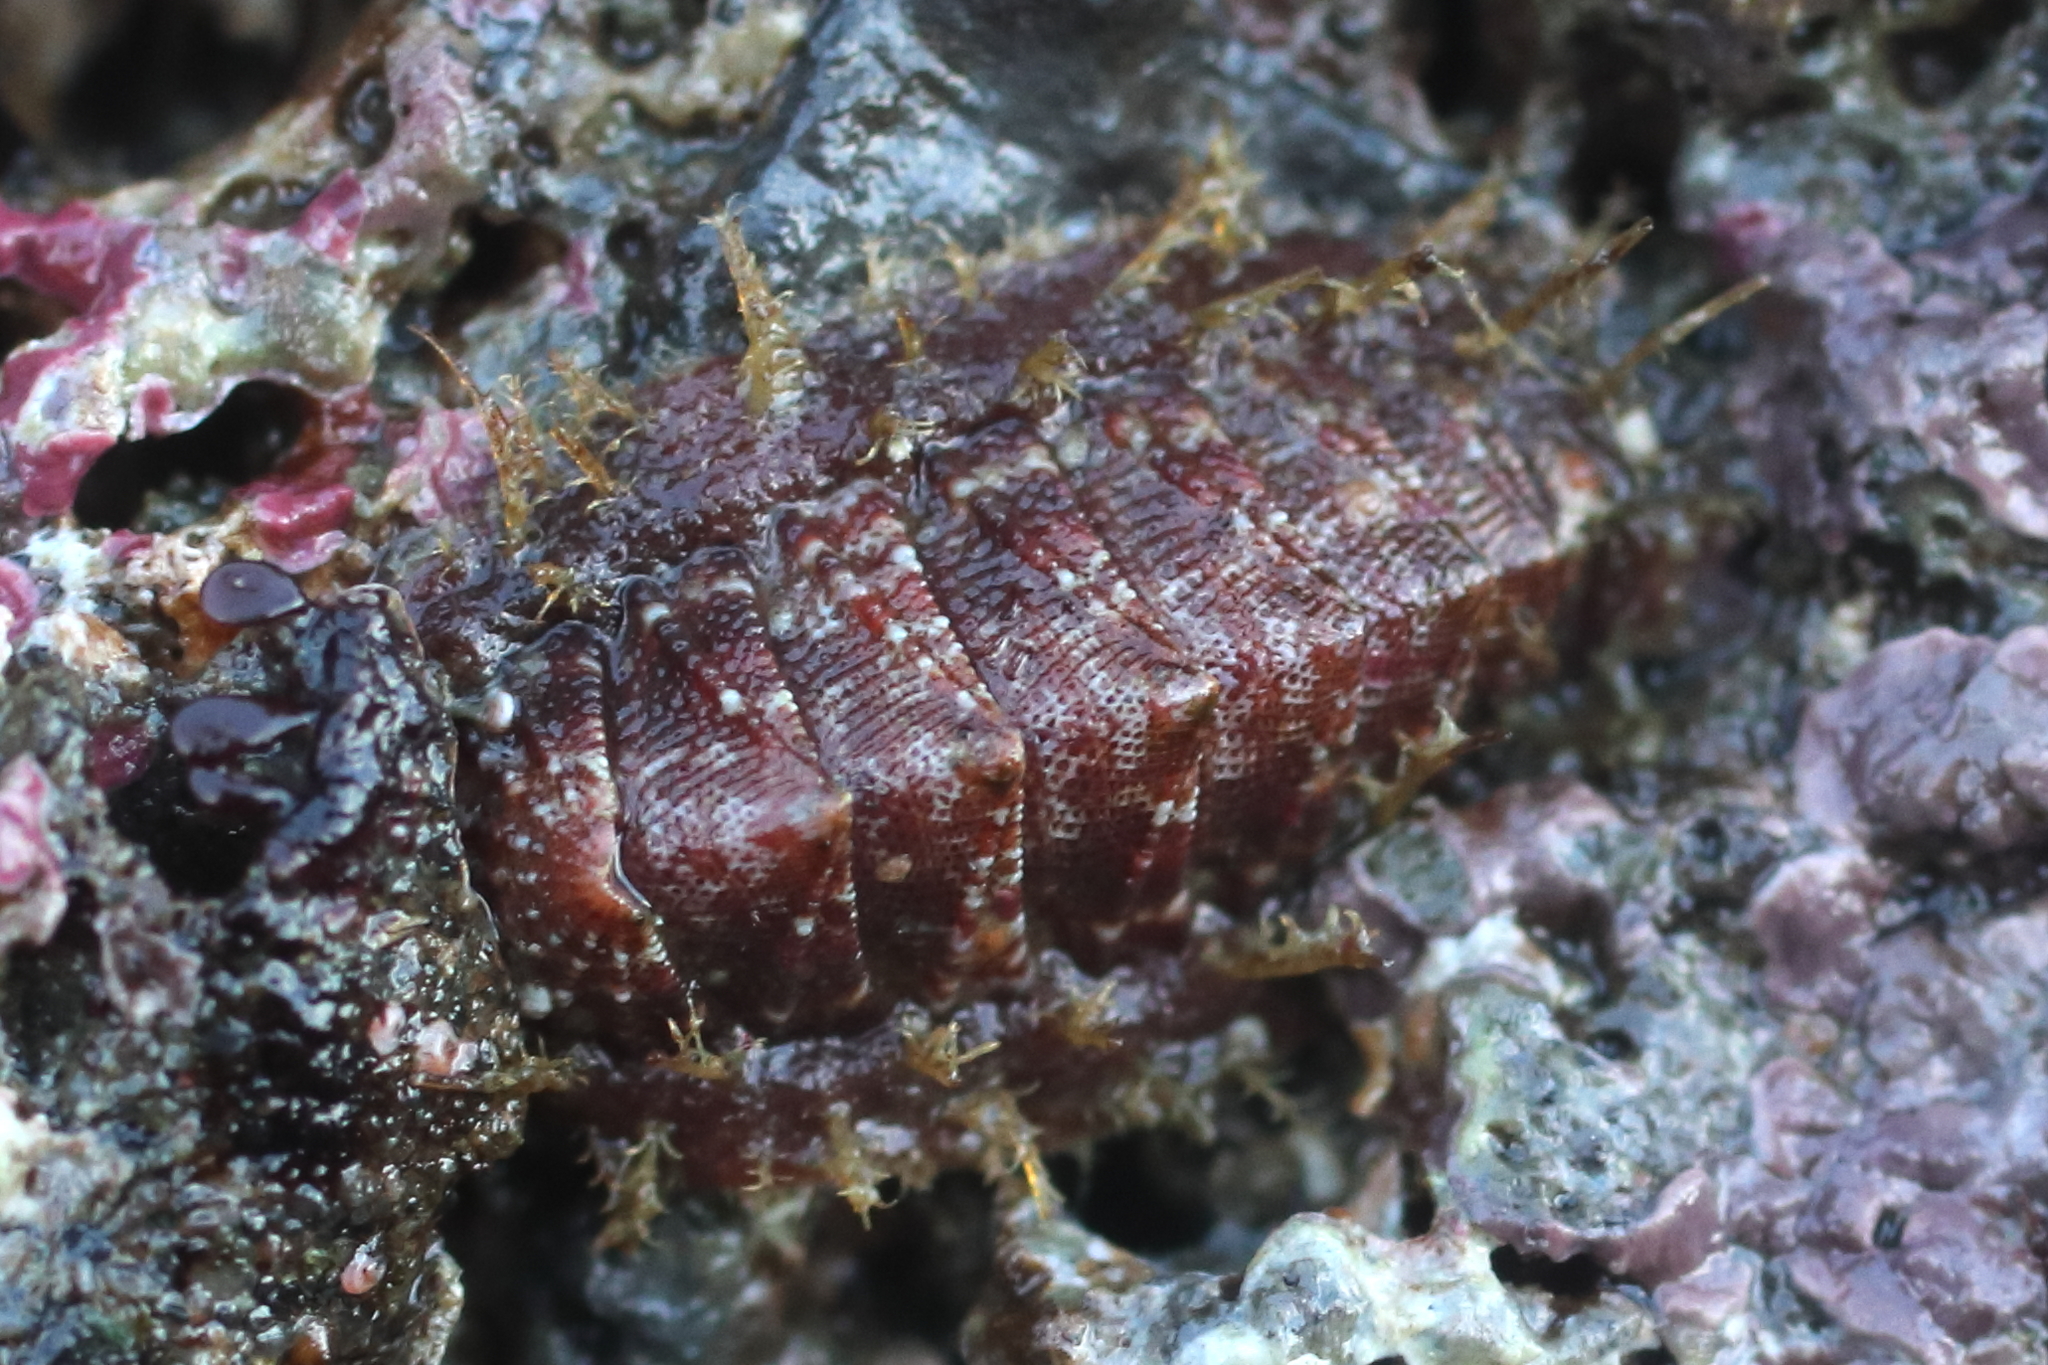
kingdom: Animalia
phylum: Mollusca
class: Polyplacophora
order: Chitonida
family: Mopaliidae
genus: Mopalia
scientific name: Mopalia sinuata
